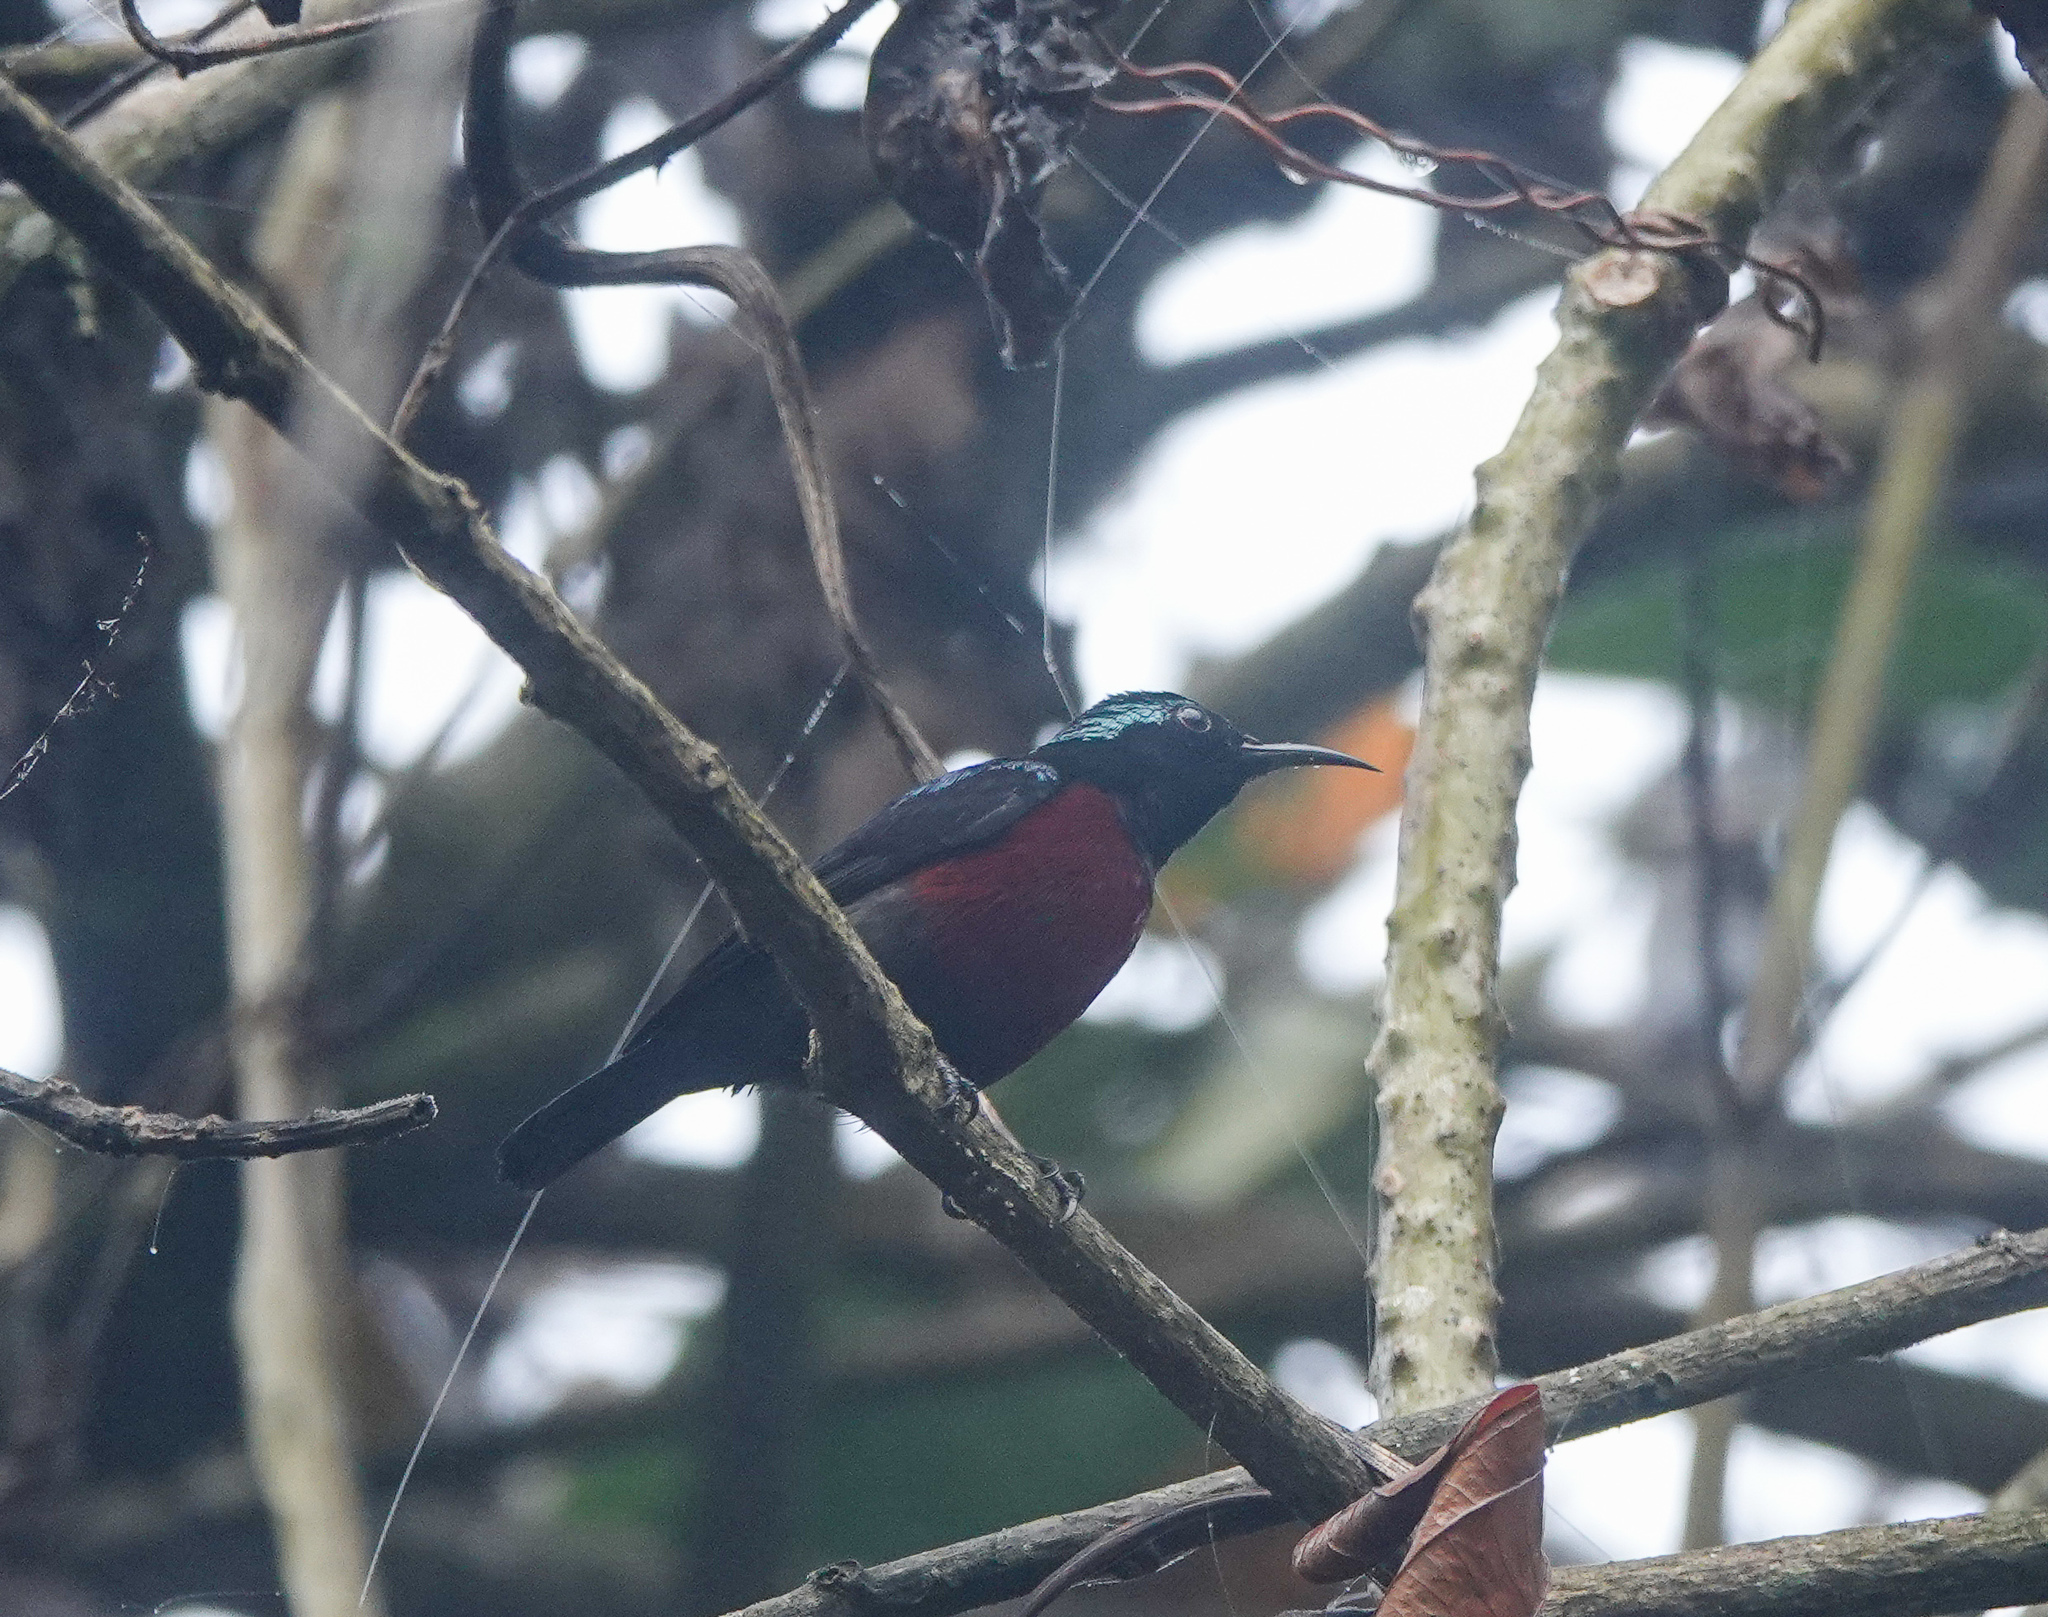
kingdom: Animalia
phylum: Chordata
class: Aves
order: Passeriformes
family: Nectariniidae
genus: Leptocoma
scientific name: Leptocoma brasiliana
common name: Van hasselt's sunbird
